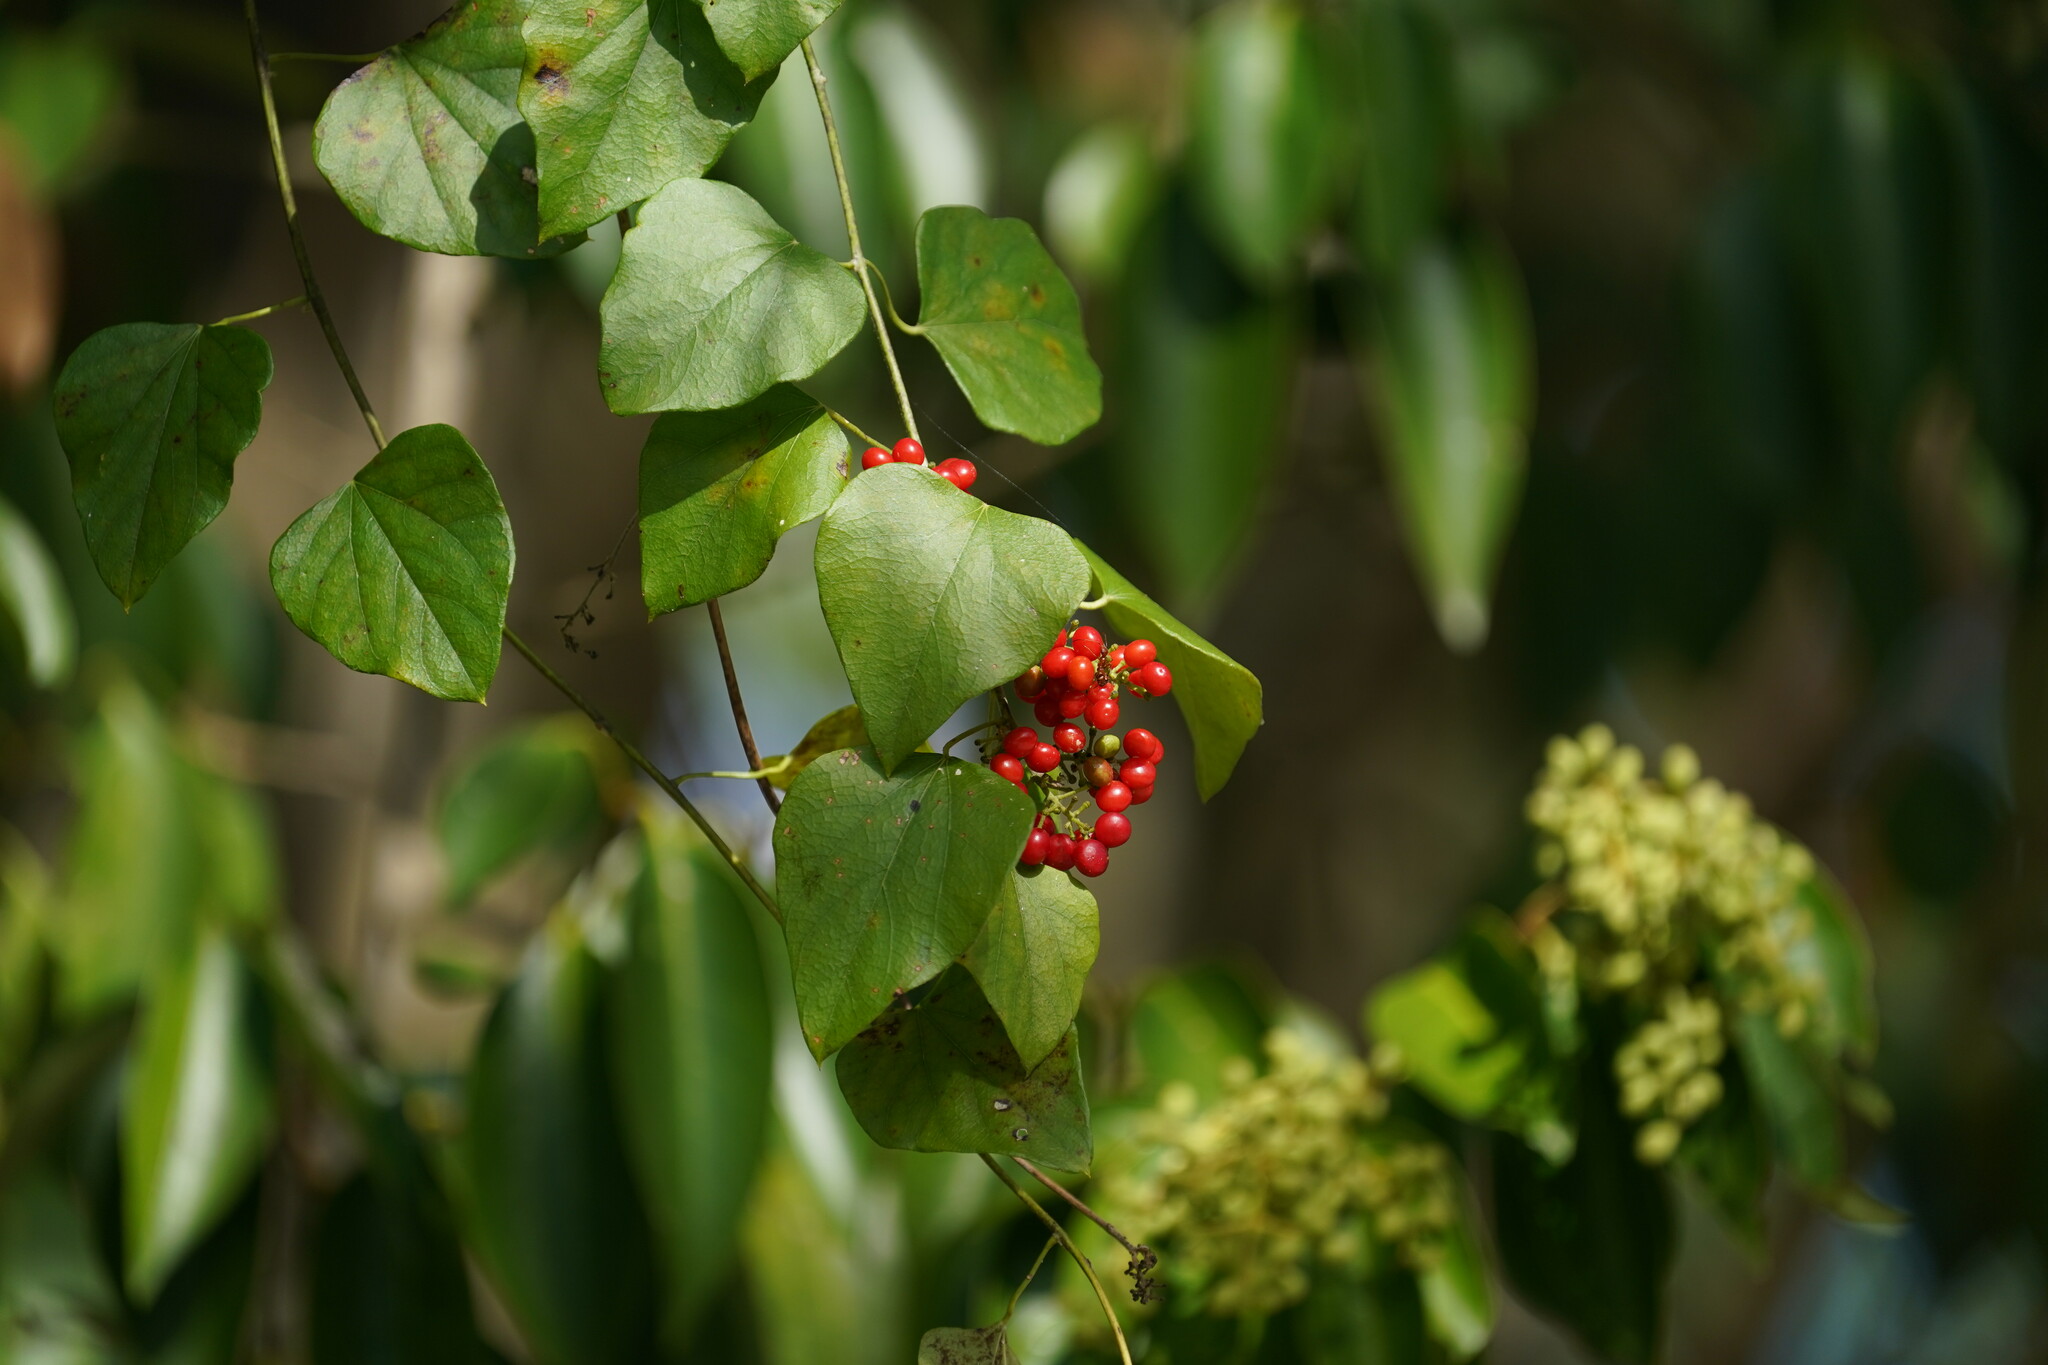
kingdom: Plantae
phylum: Tracheophyta
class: Magnoliopsida
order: Ranunculales
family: Menispermaceae
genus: Cocculus
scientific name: Cocculus carolinus
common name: Carolina moonseed
